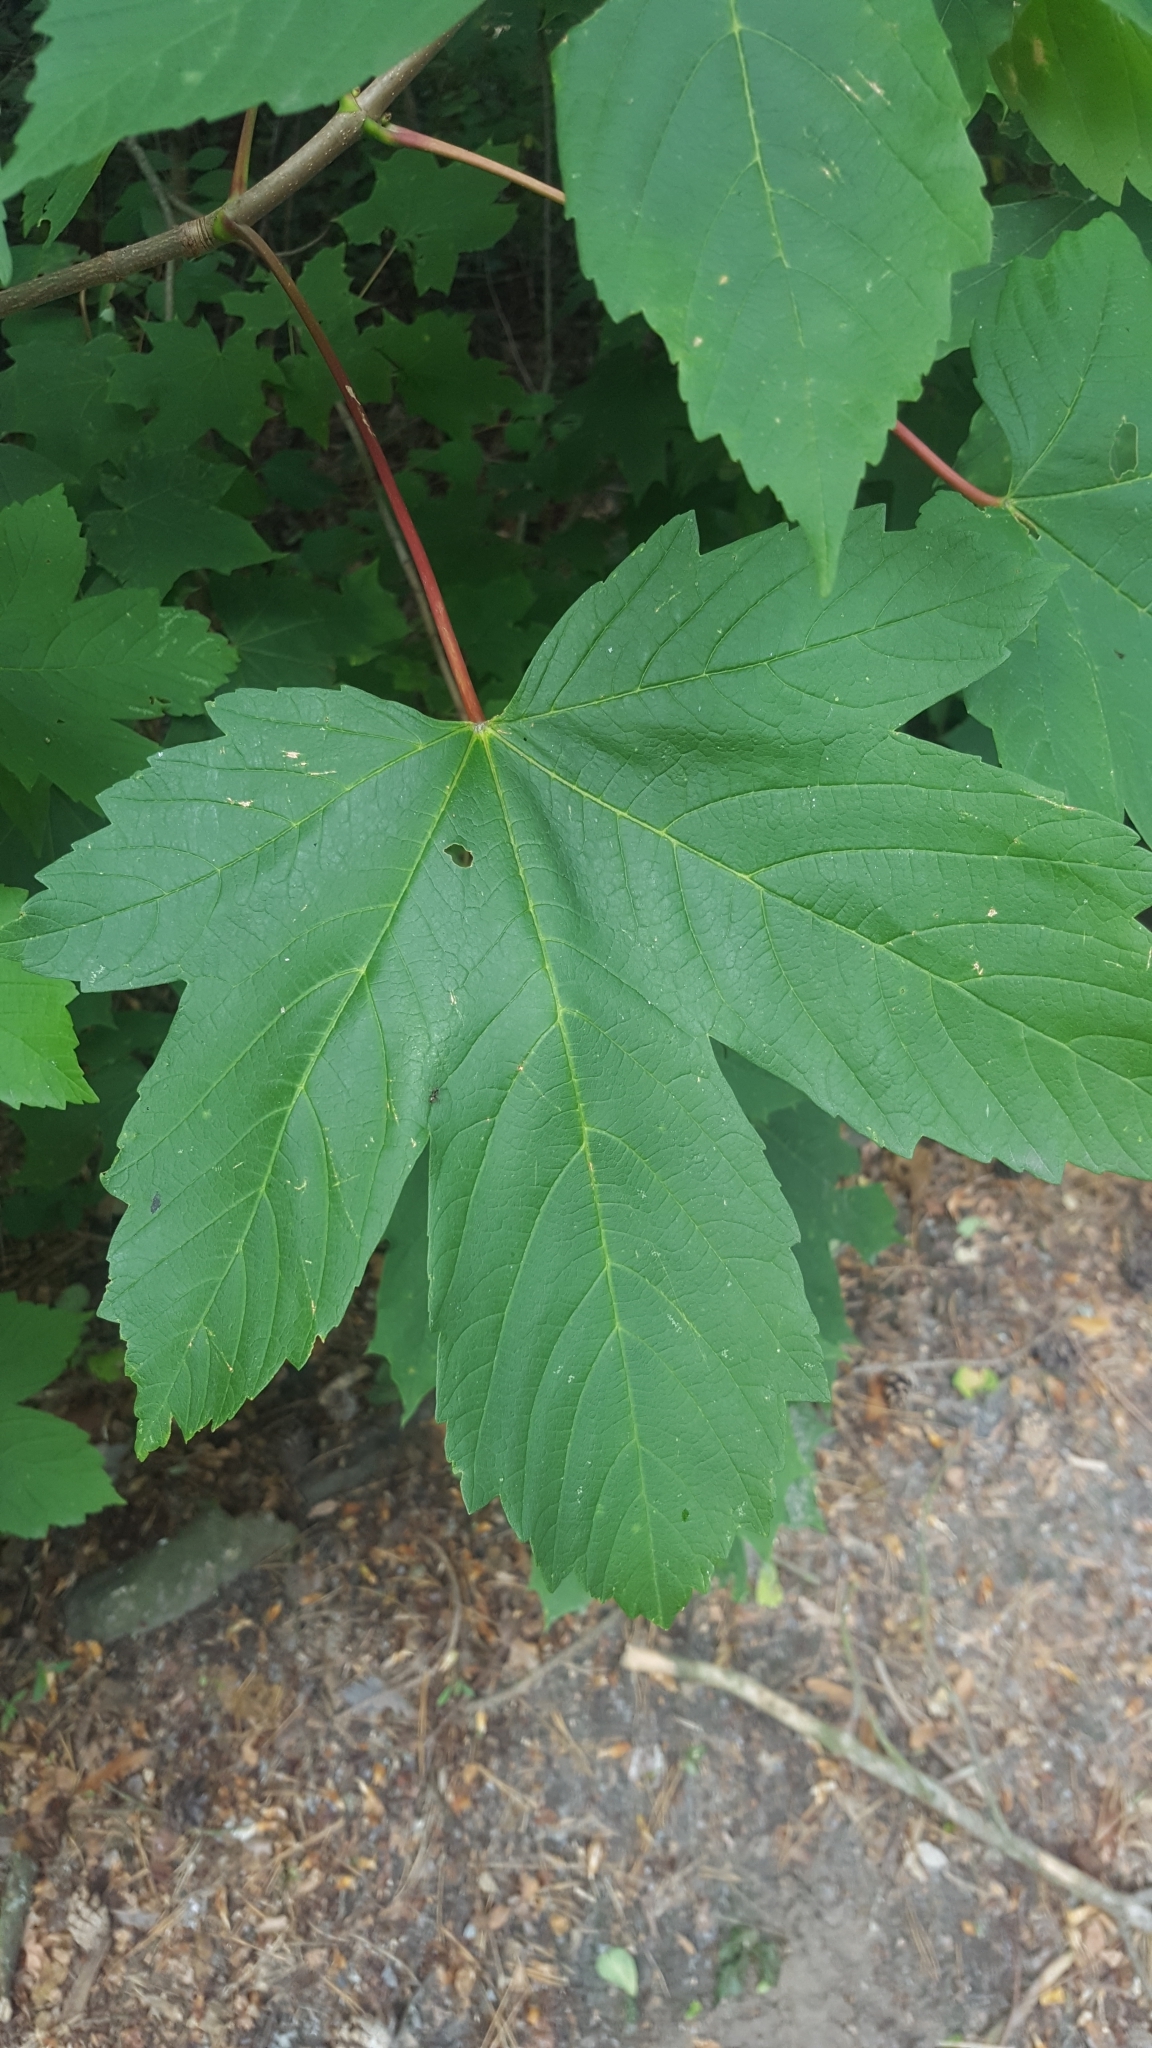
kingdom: Plantae
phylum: Tracheophyta
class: Magnoliopsida
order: Sapindales
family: Sapindaceae
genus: Acer
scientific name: Acer pseudoplatanus
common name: Sycamore
